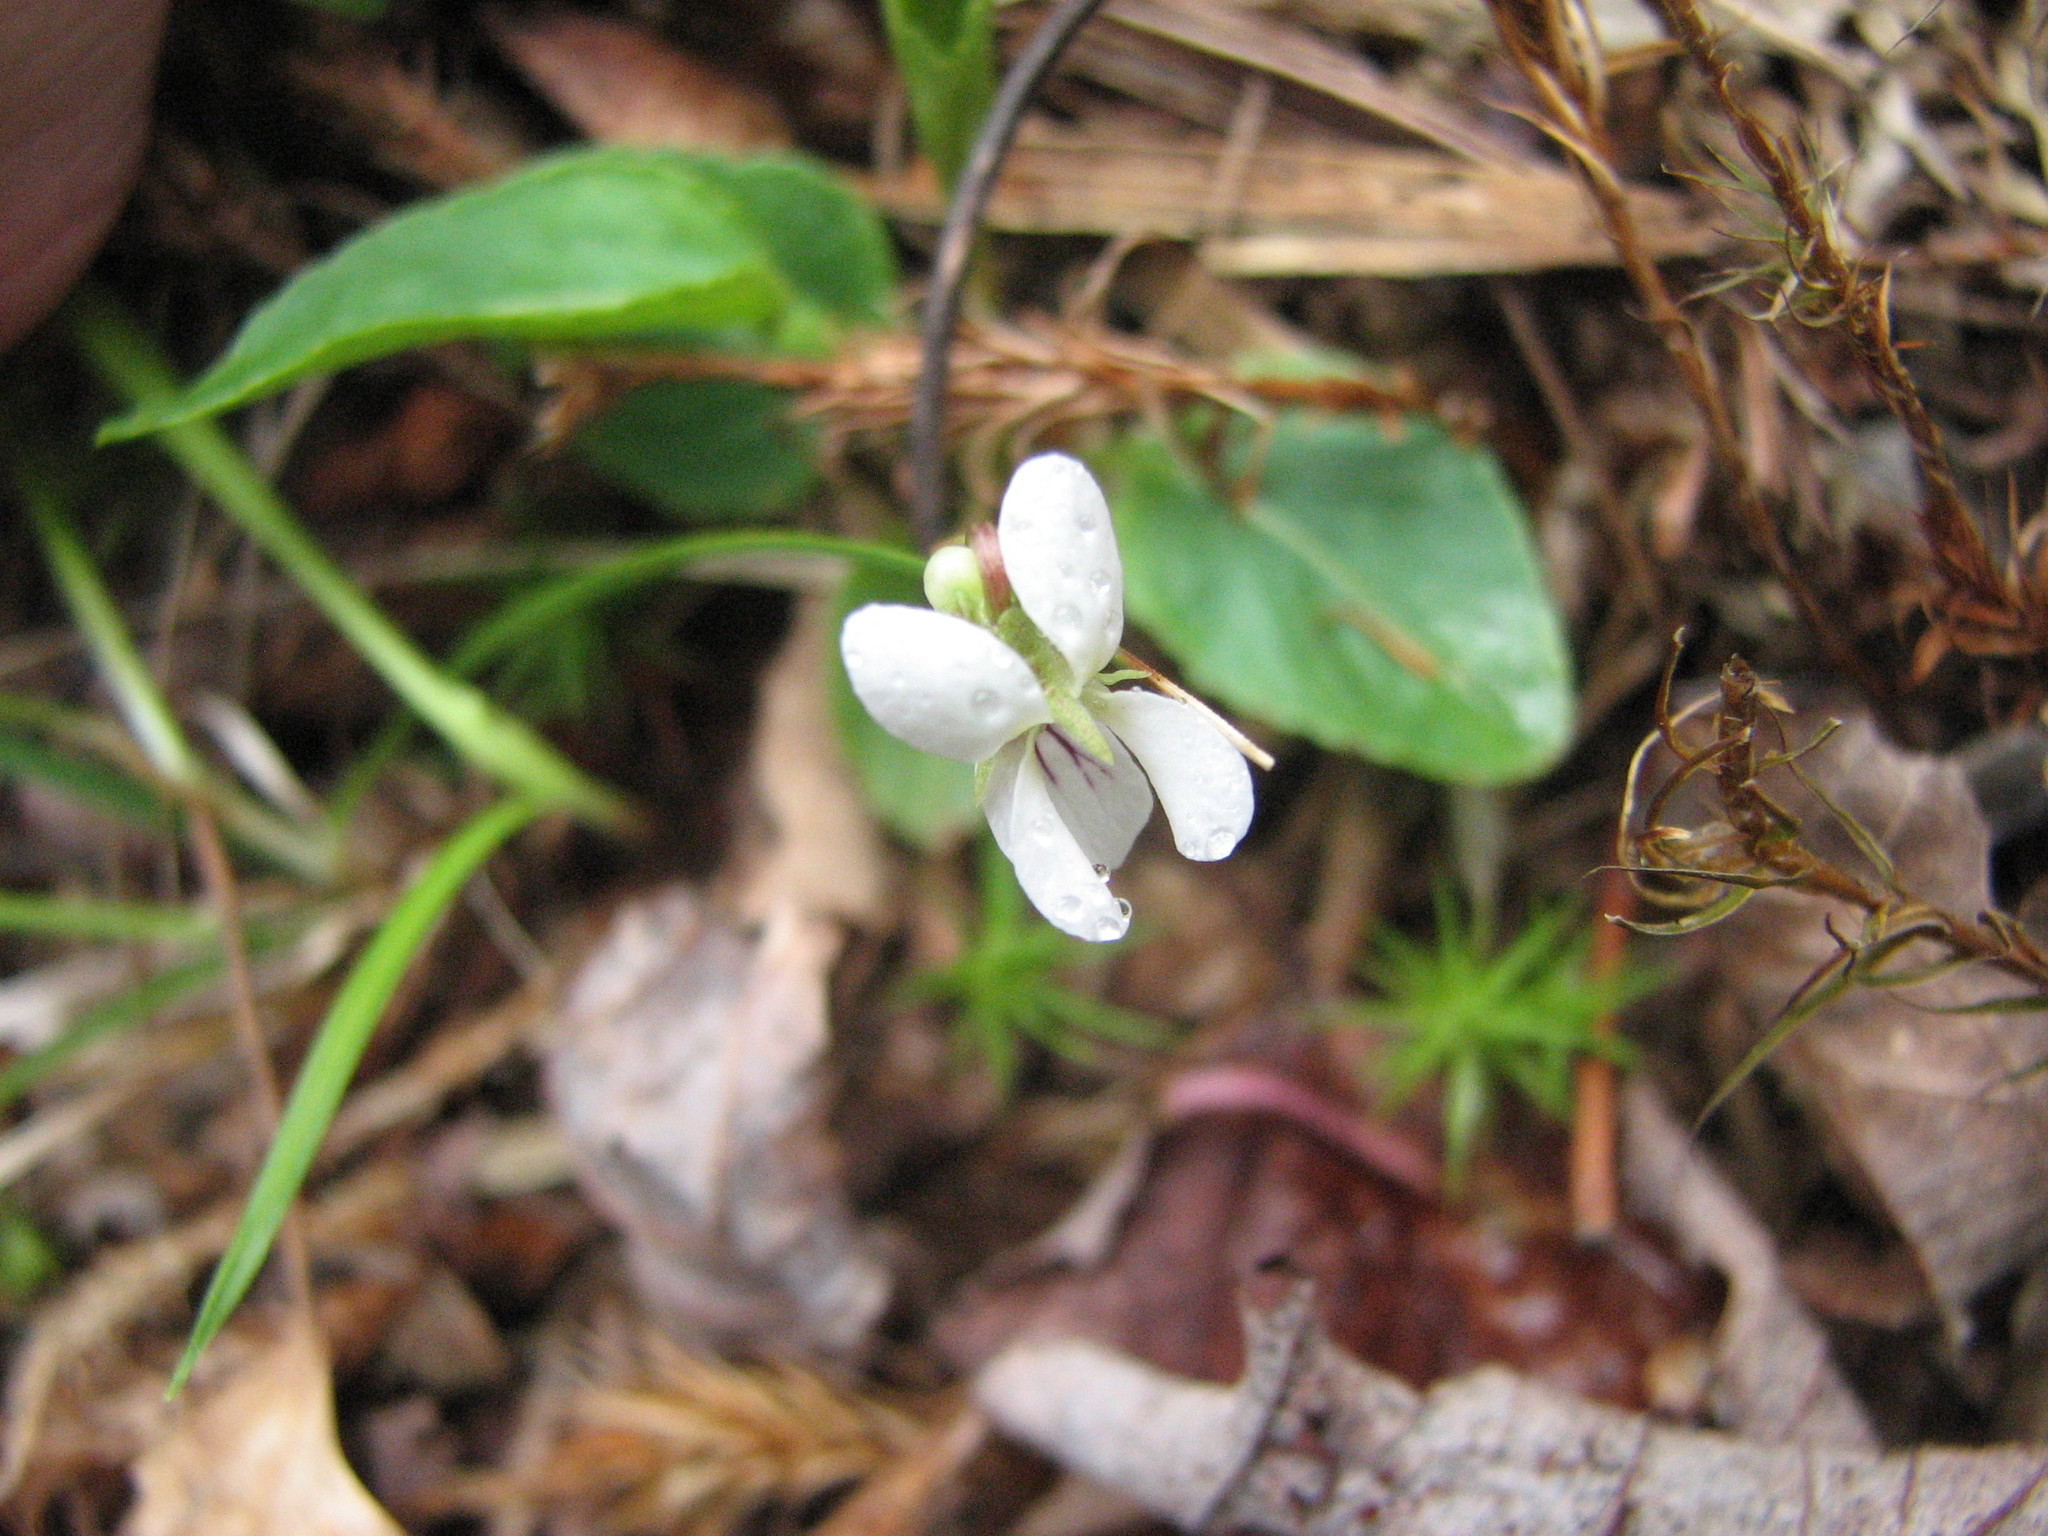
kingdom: Plantae
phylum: Tracheophyta
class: Magnoliopsida
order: Malpighiales
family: Violaceae
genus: Viola
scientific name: Viola primulifolia
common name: Primrose-leaf violet
